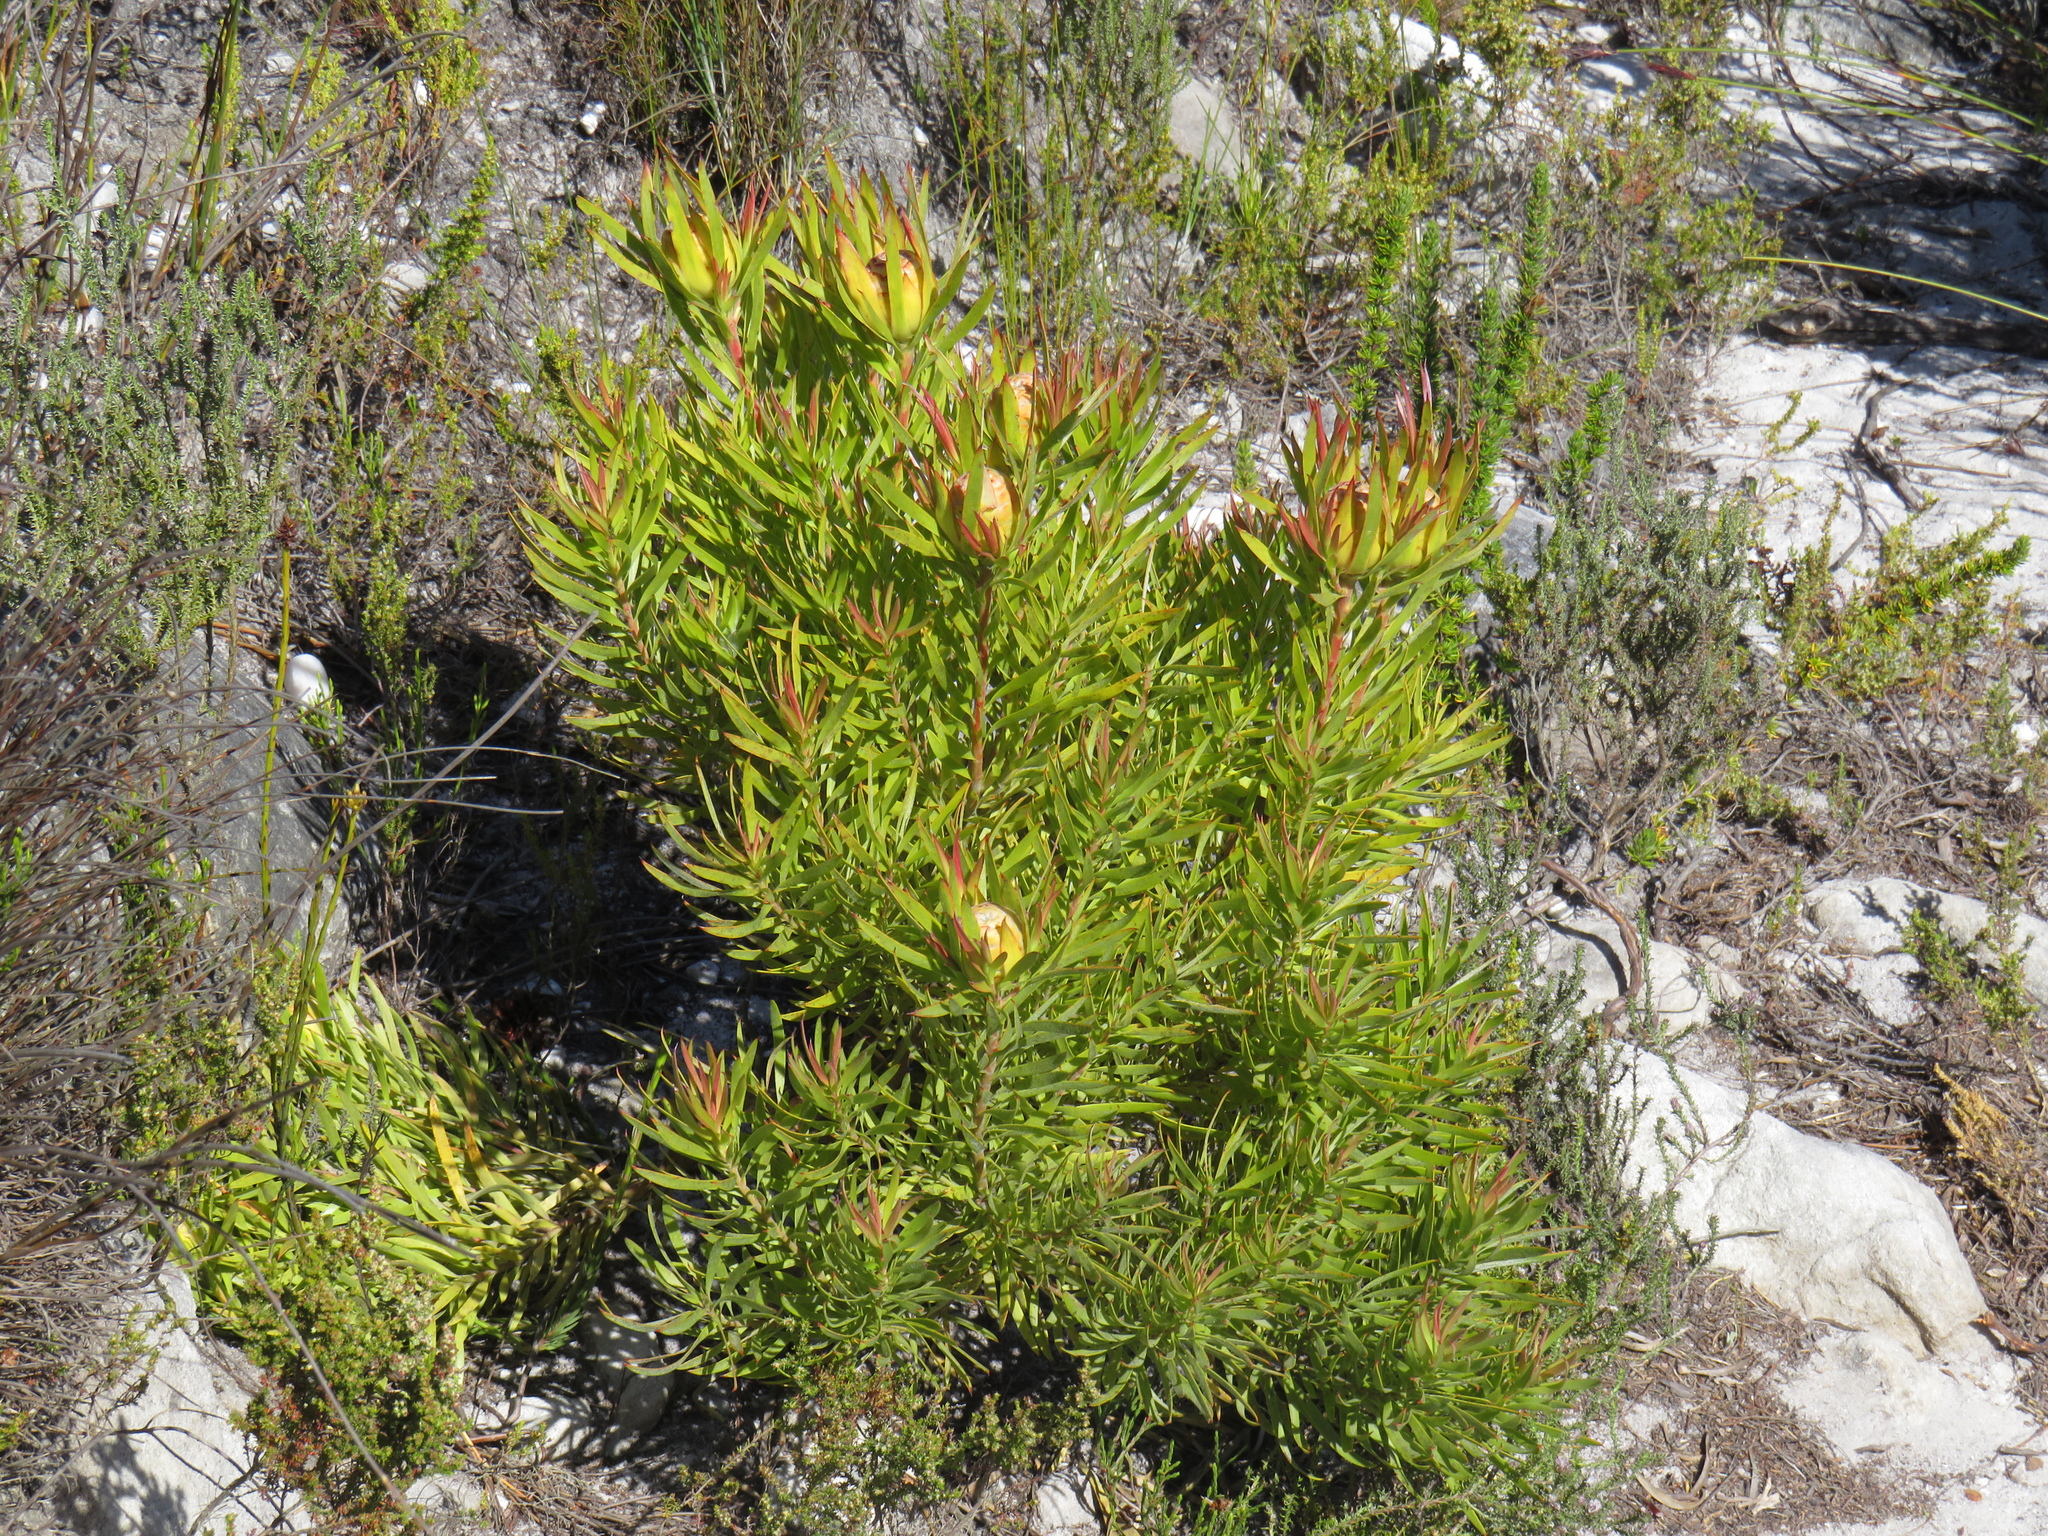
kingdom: Plantae
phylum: Tracheophyta
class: Magnoliopsida
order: Proteales
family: Proteaceae
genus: Leucadendron
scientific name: Leucadendron xanthoconus
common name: Sickle-leaf conebush
